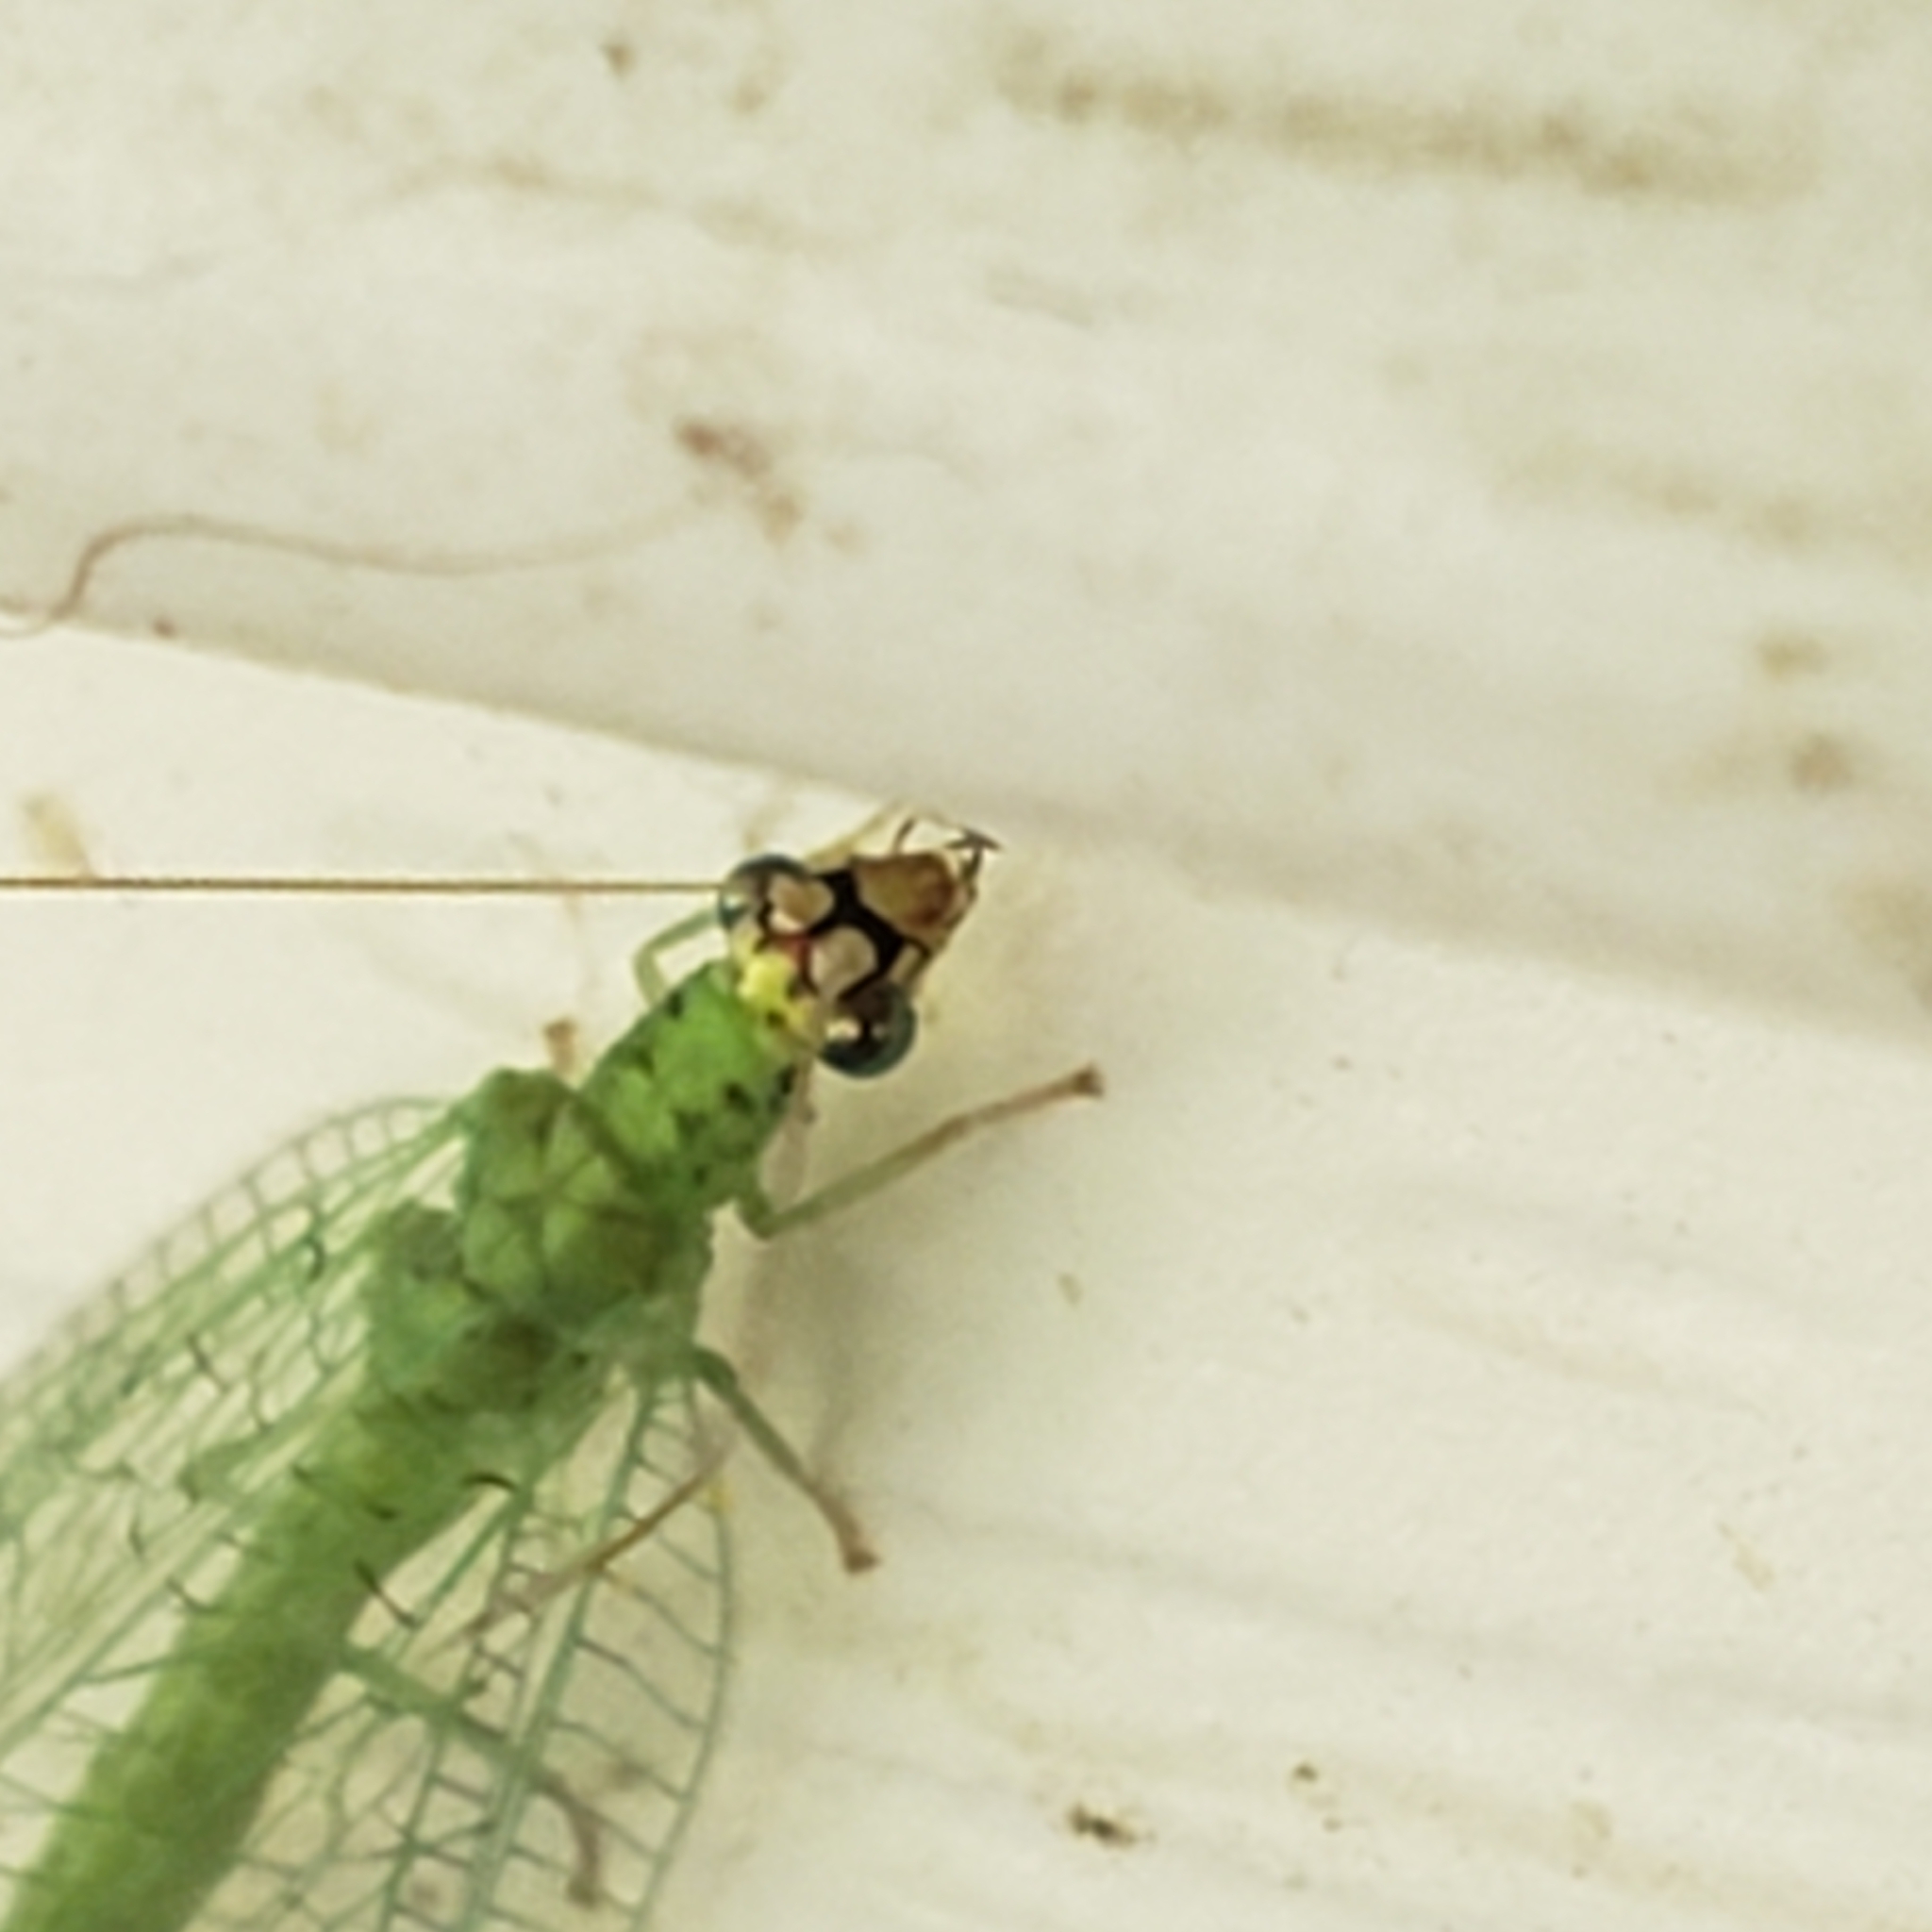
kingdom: Animalia
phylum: Arthropoda
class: Insecta
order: Neuroptera
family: Chrysopidae
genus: Chrysopa
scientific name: Chrysopa oculata
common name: Golden-eyed lacewing
